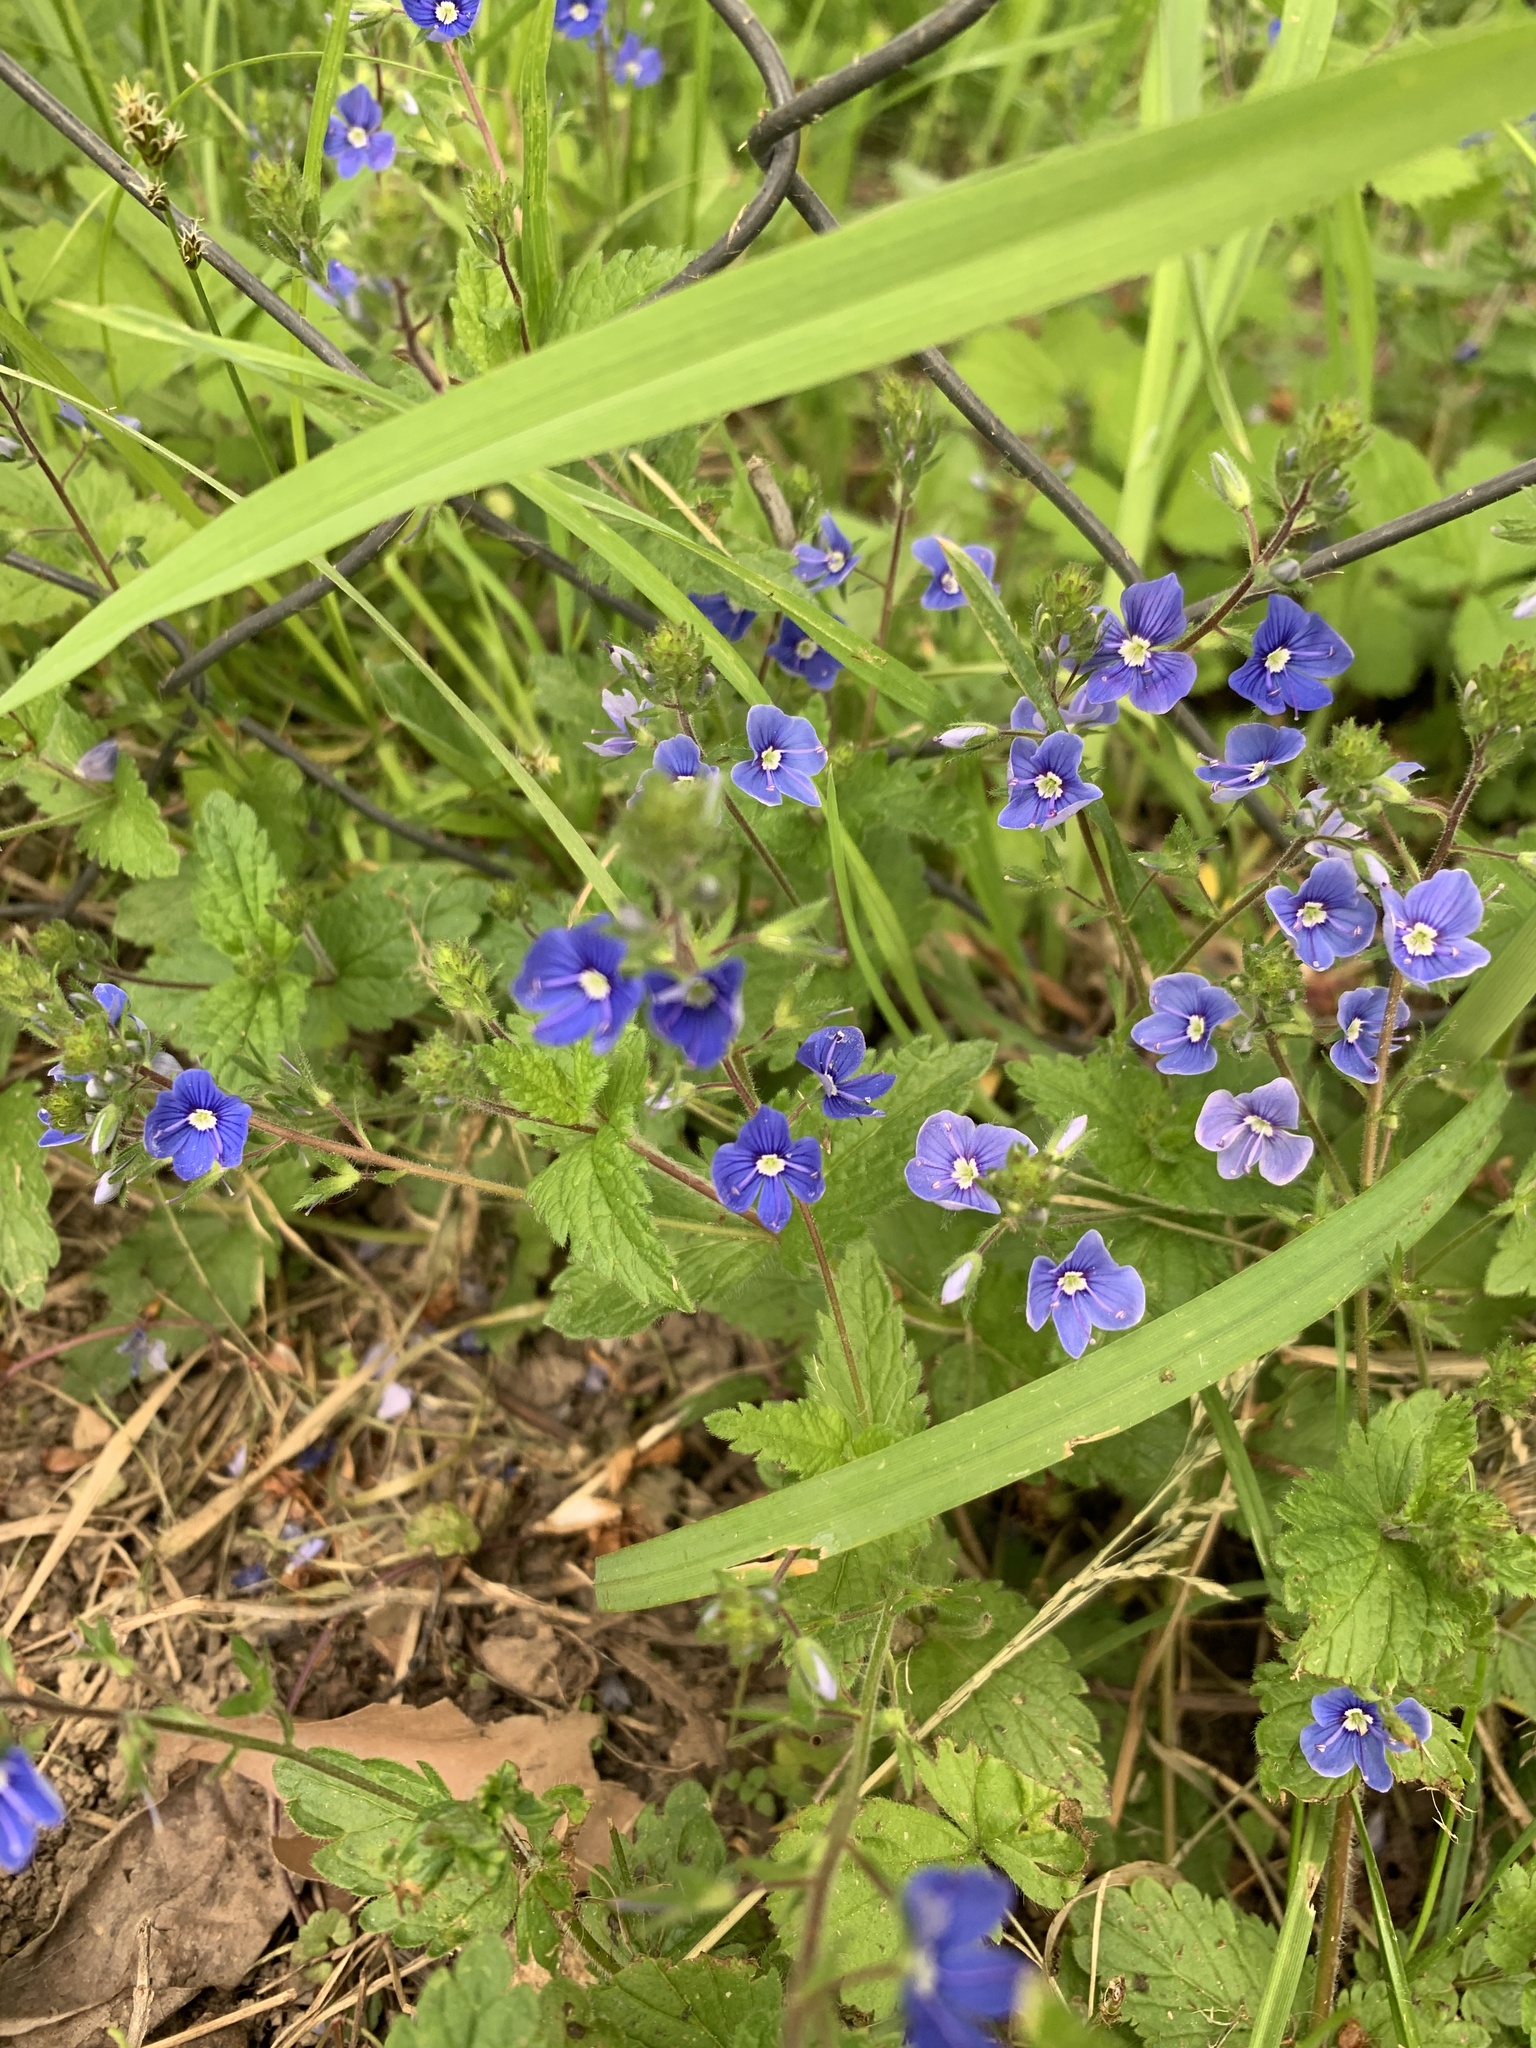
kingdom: Plantae
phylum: Tracheophyta
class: Magnoliopsida
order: Lamiales
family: Plantaginaceae
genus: Veronica
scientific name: Veronica chamaedrys
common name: Germander speedwell
